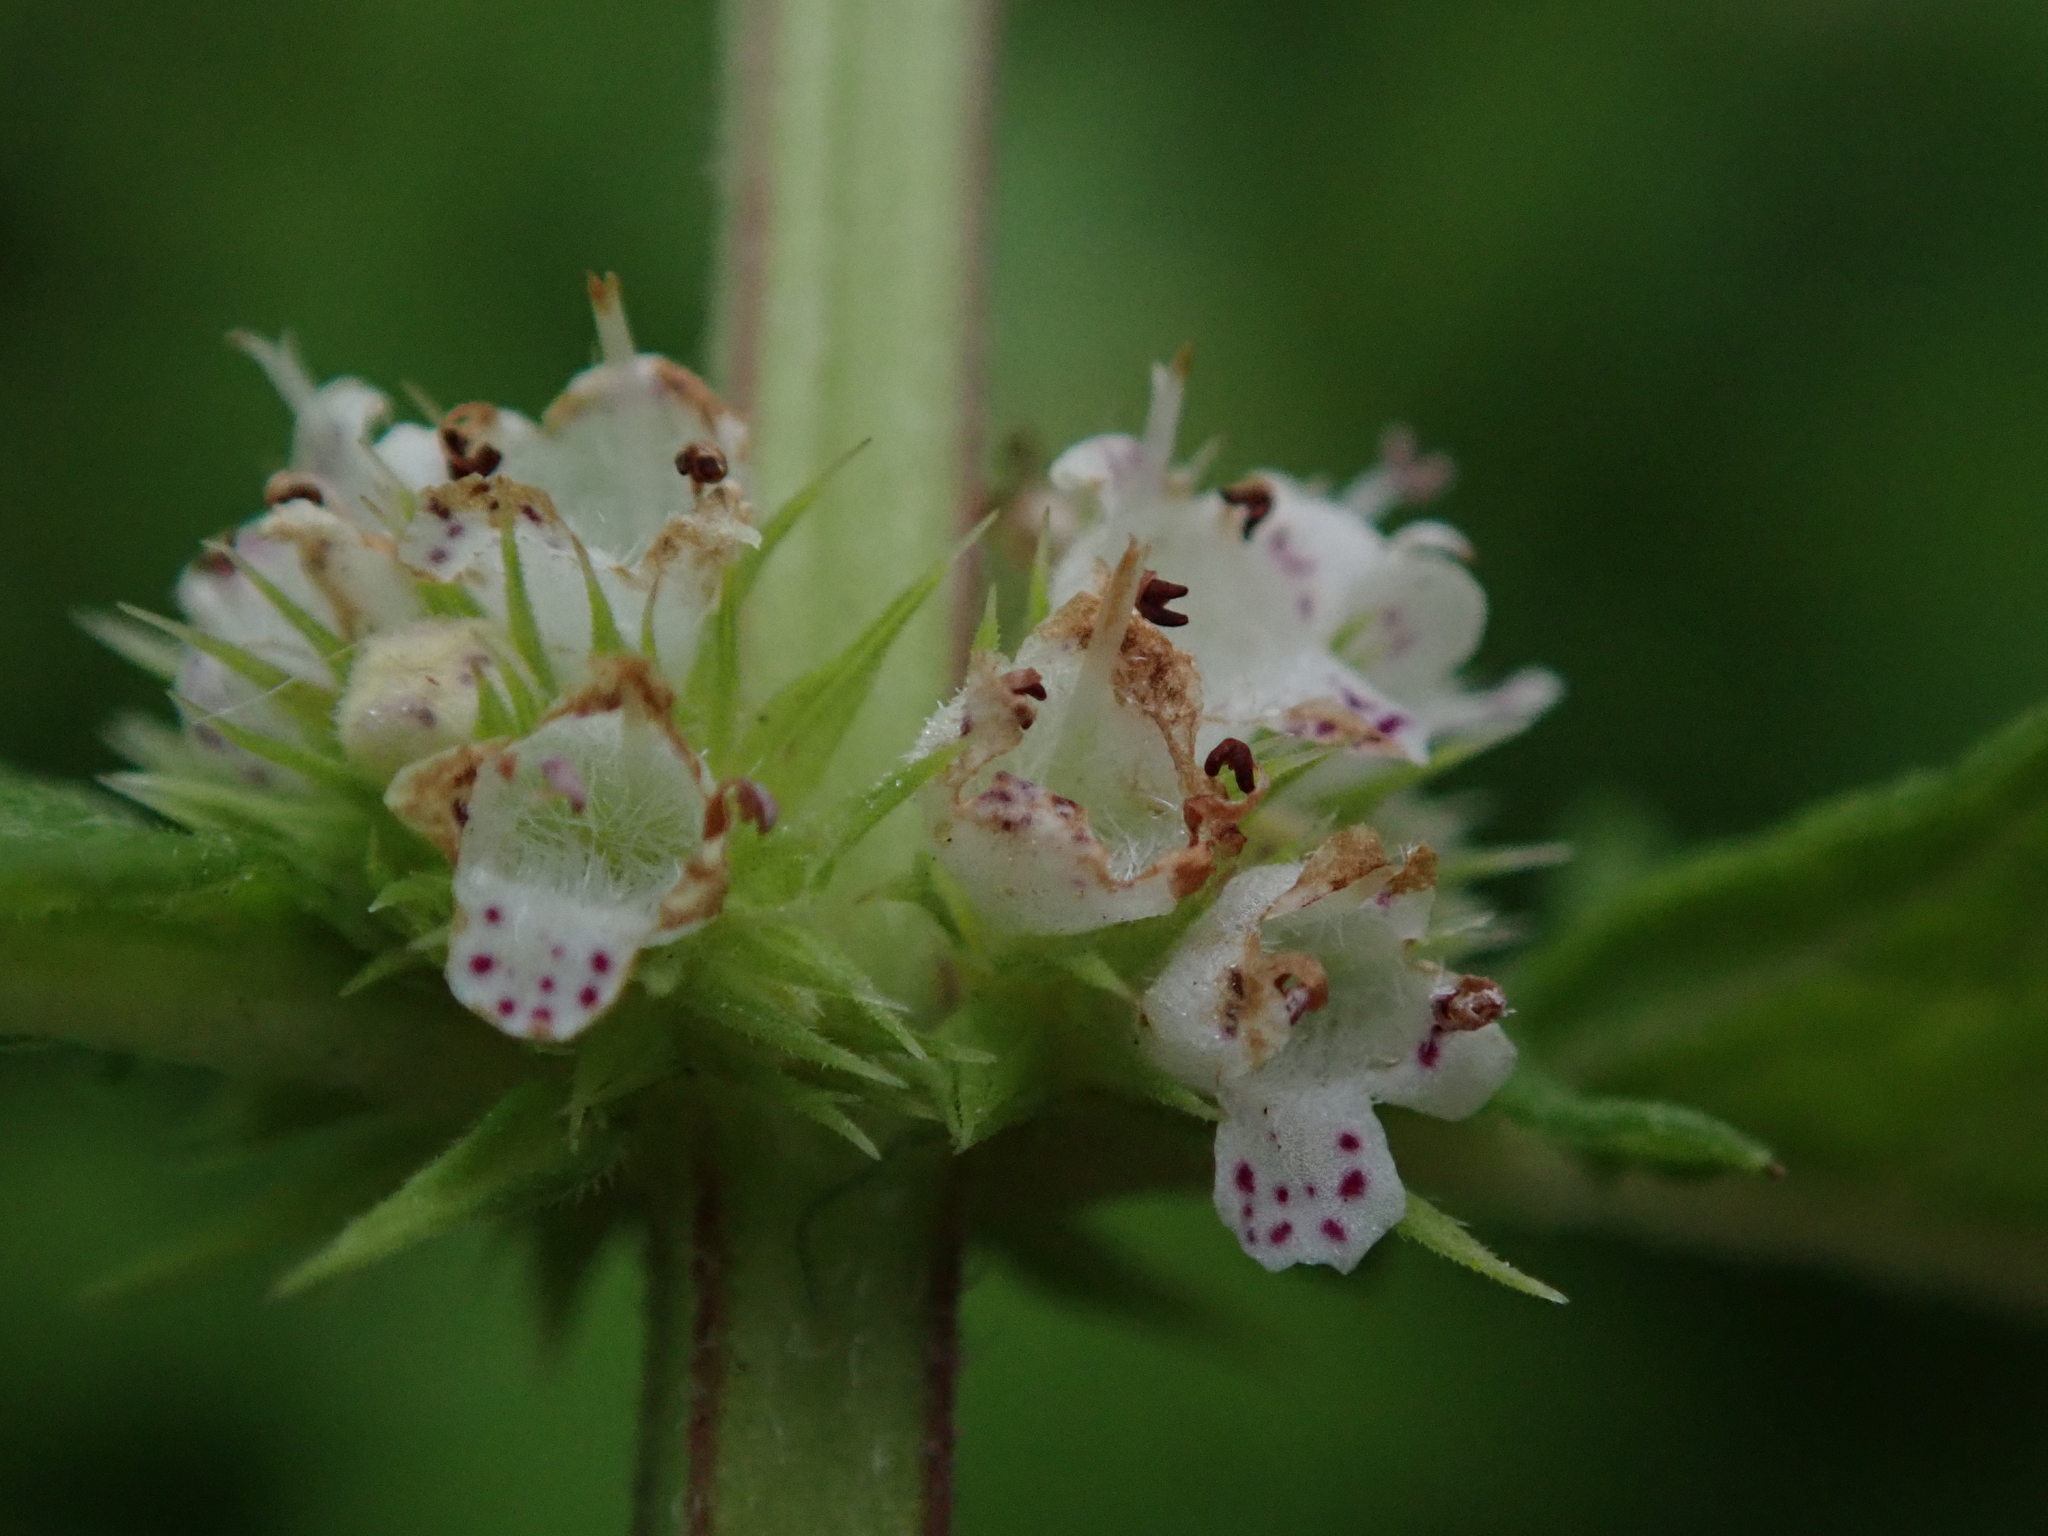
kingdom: Plantae
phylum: Tracheophyta
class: Magnoliopsida
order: Lamiales
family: Lamiaceae
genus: Lycopus
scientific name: Lycopus europaeus
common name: European bugleweed
